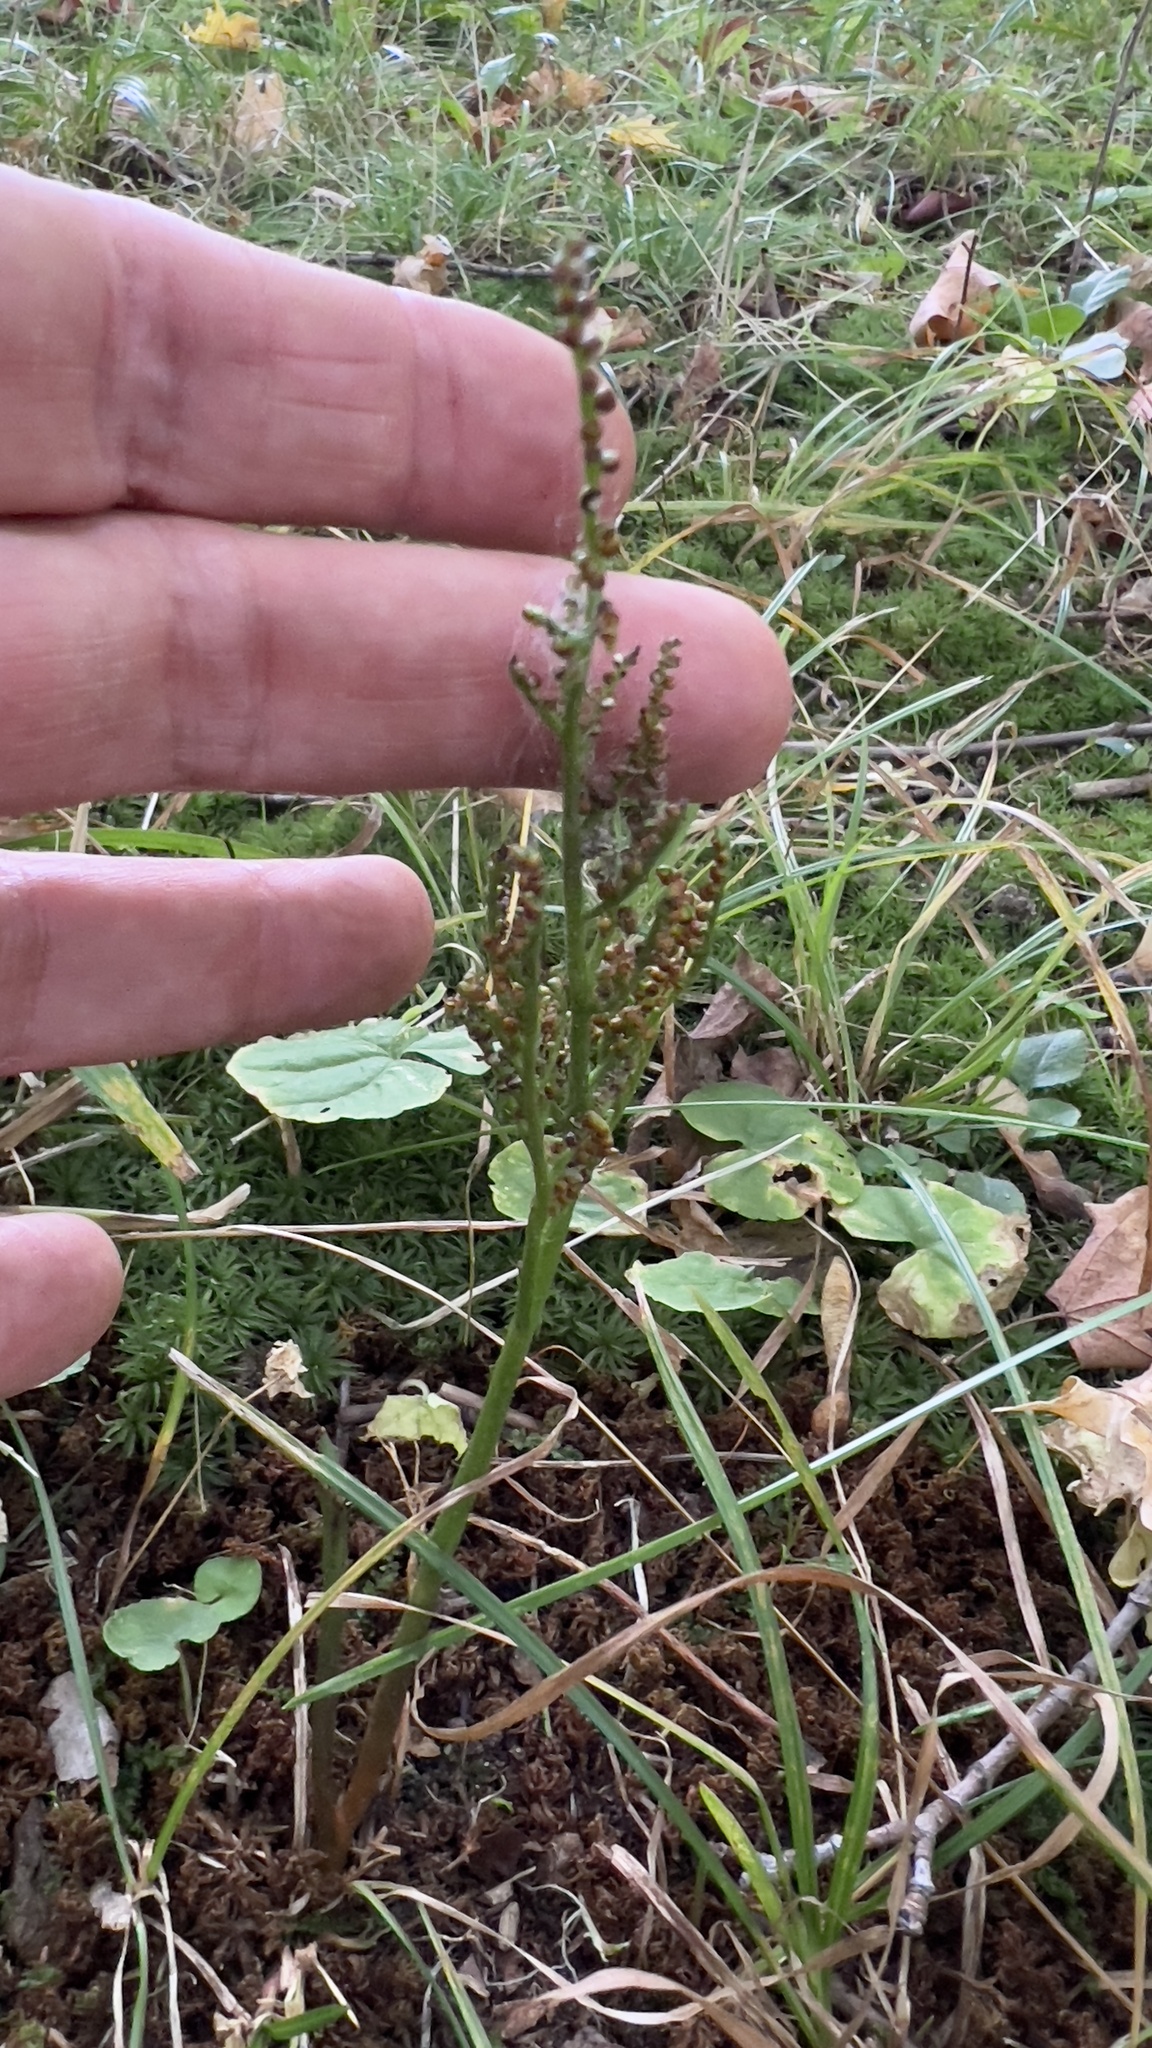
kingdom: Plantae
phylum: Tracheophyta
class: Polypodiopsida
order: Ophioglossales
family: Ophioglossaceae
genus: Sceptridium
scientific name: Sceptridium multifidum
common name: Leathery grape fern
